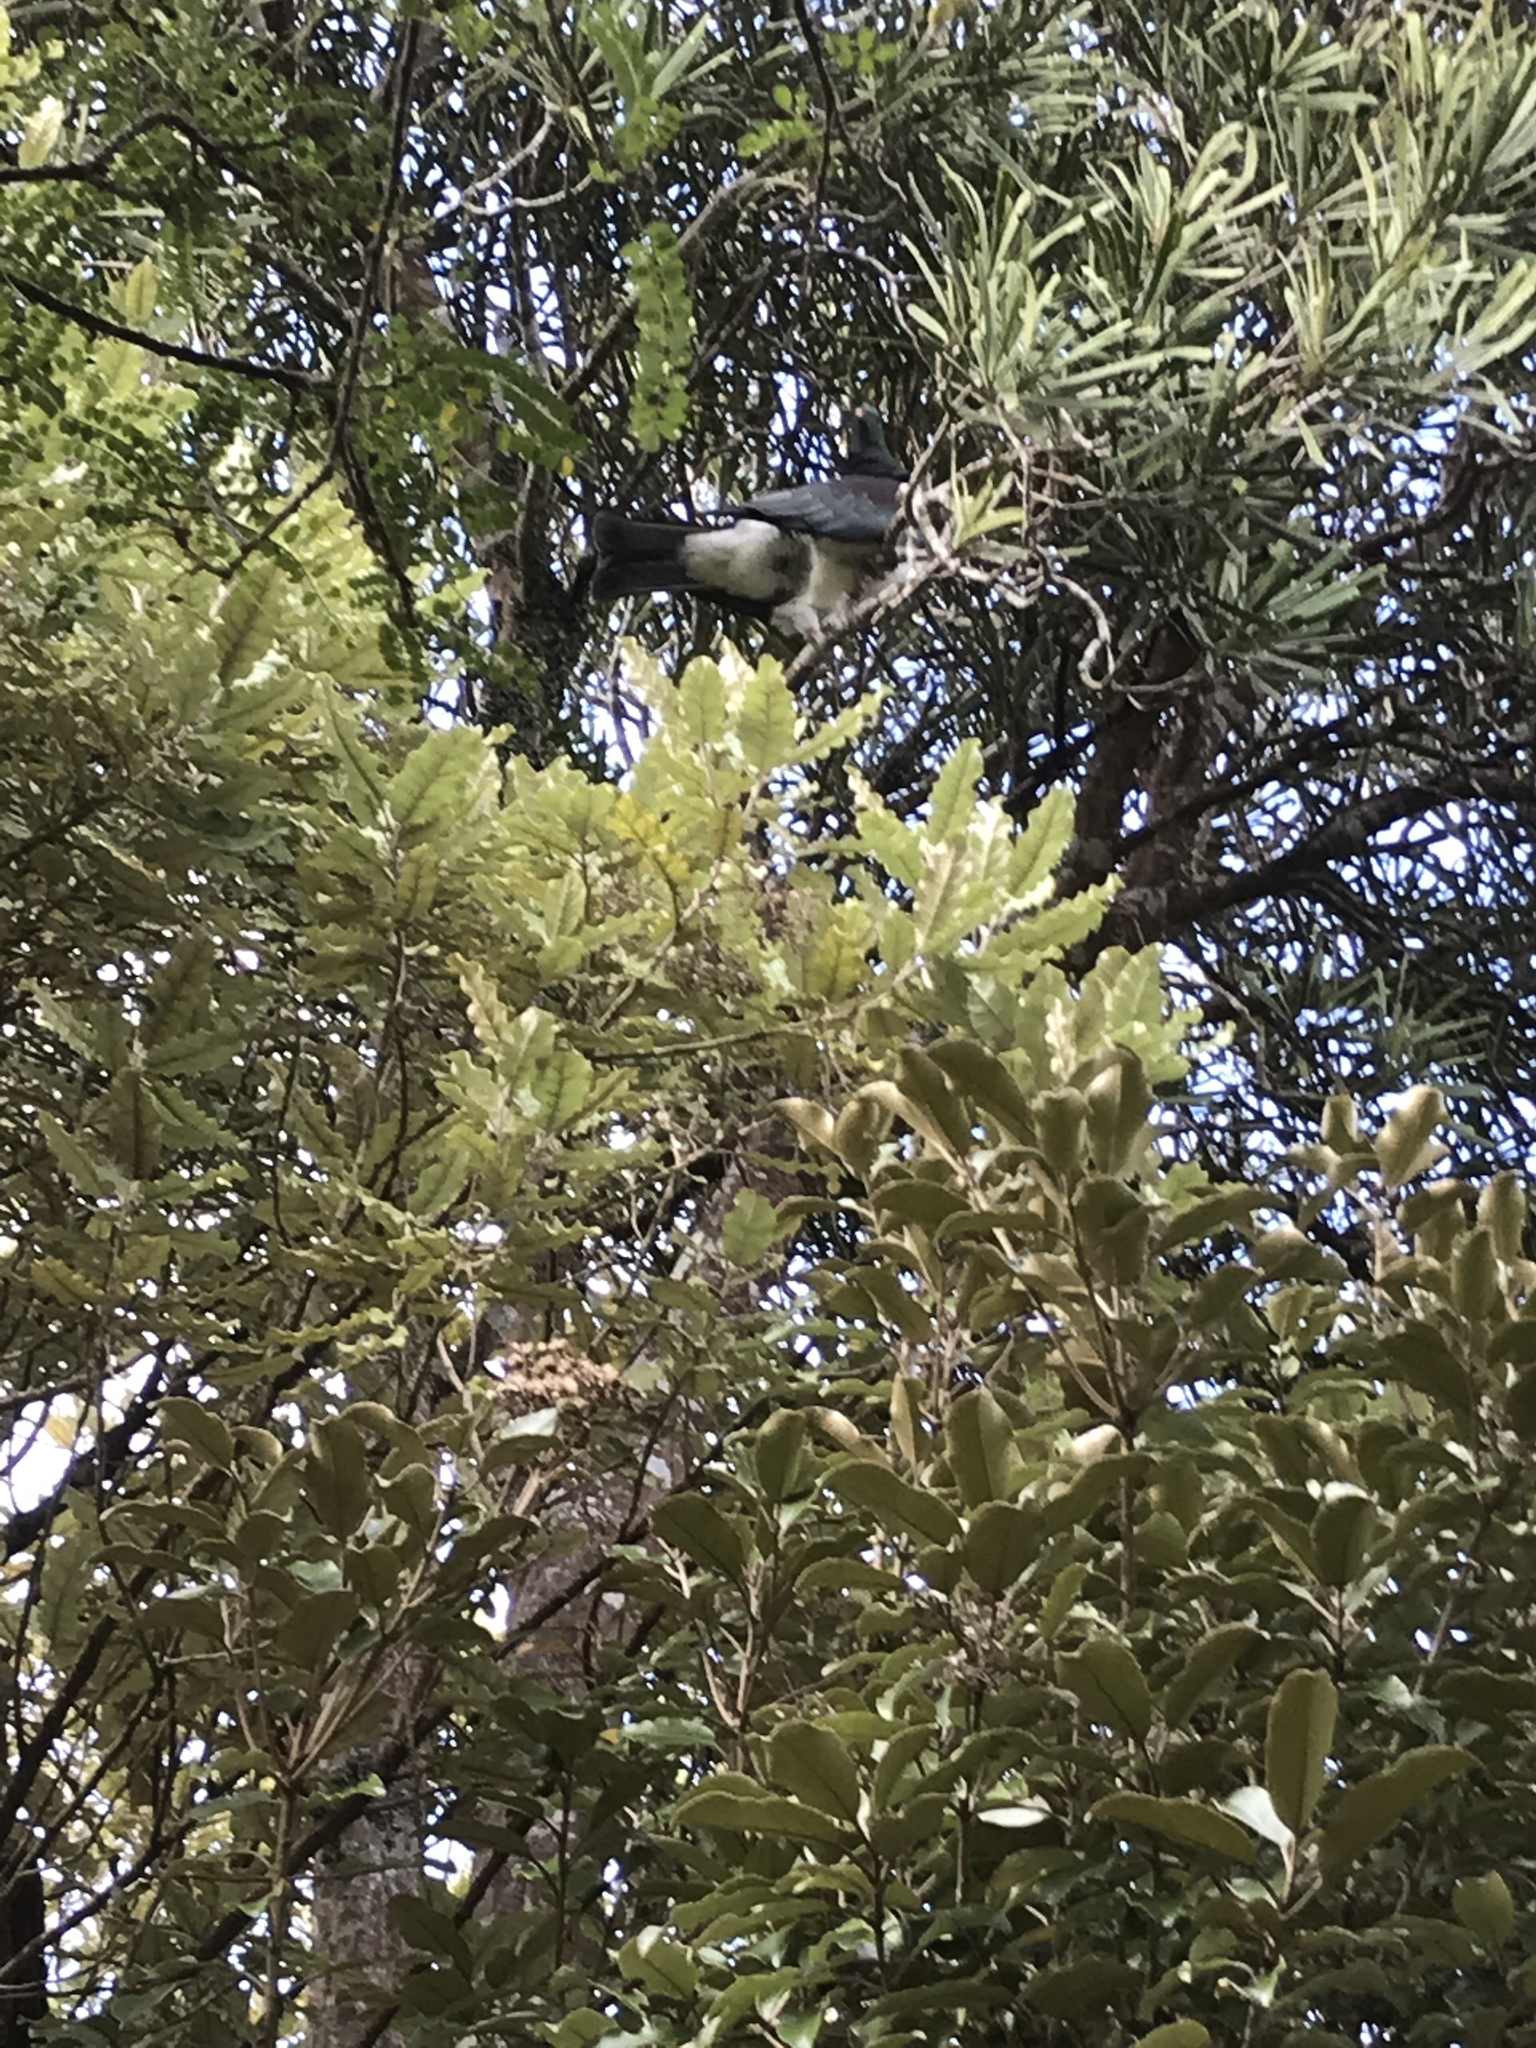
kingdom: Animalia
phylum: Chordata
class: Aves
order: Columbiformes
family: Columbidae
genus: Hemiphaga
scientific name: Hemiphaga novaeseelandiae
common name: New zealand pigeon
